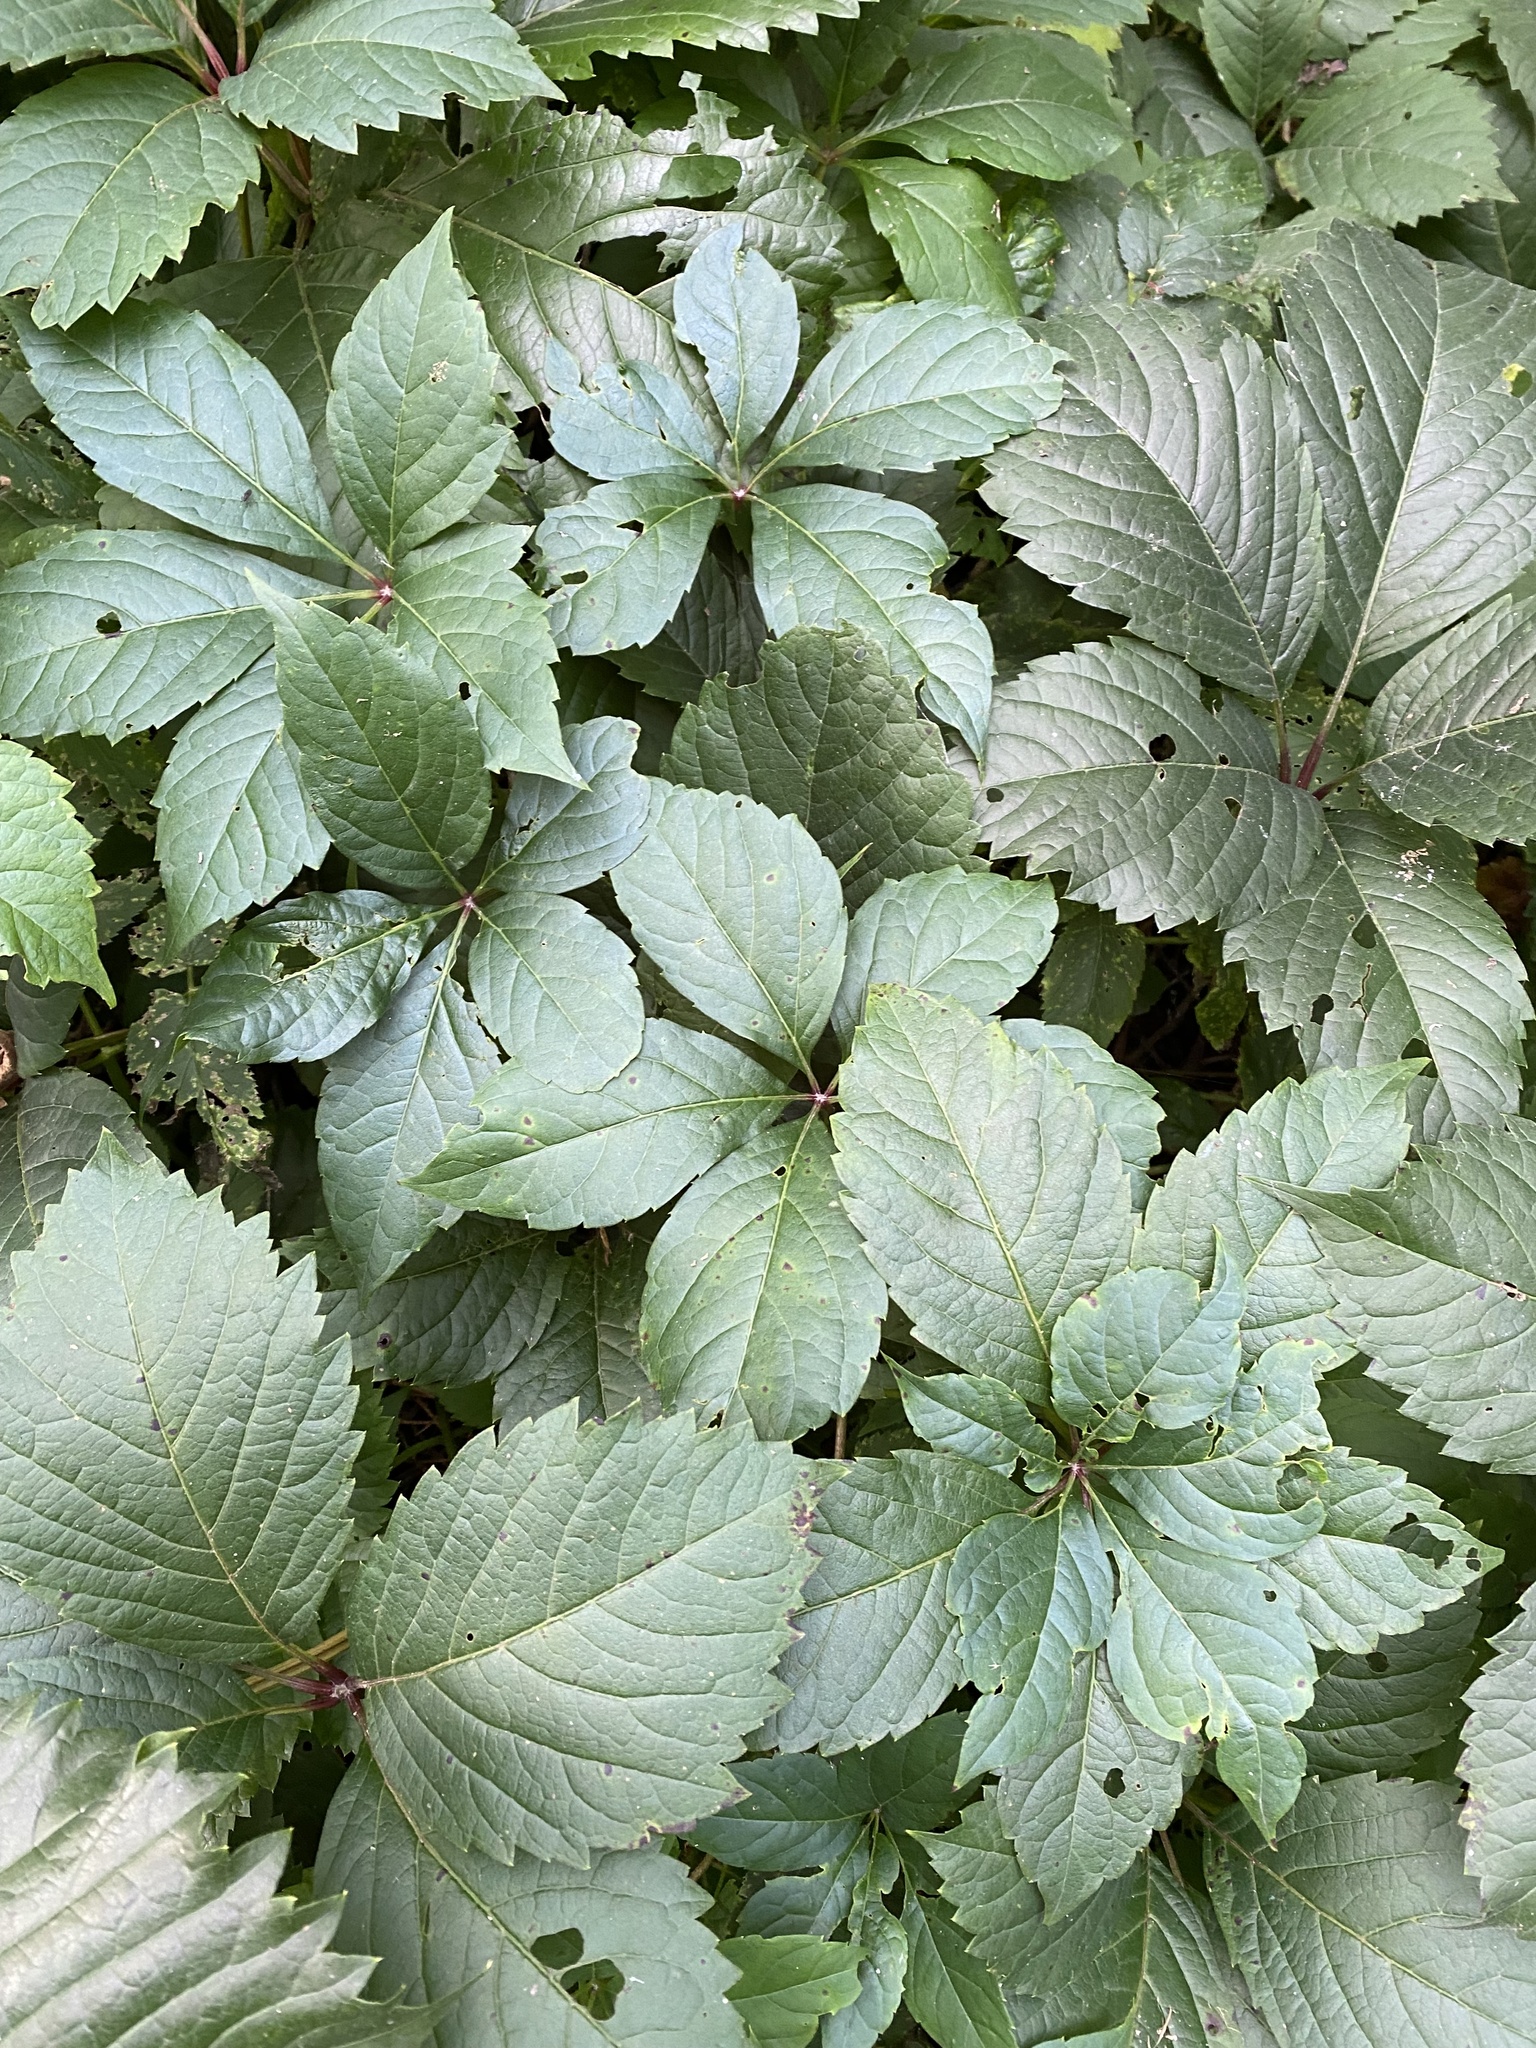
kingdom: Plantae
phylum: Tracheophyta
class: Magnoliopsida
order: Vitales
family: Vitaceae
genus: Parthenocissus
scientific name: Parthenocissus inserta
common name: False virginia-creeper
